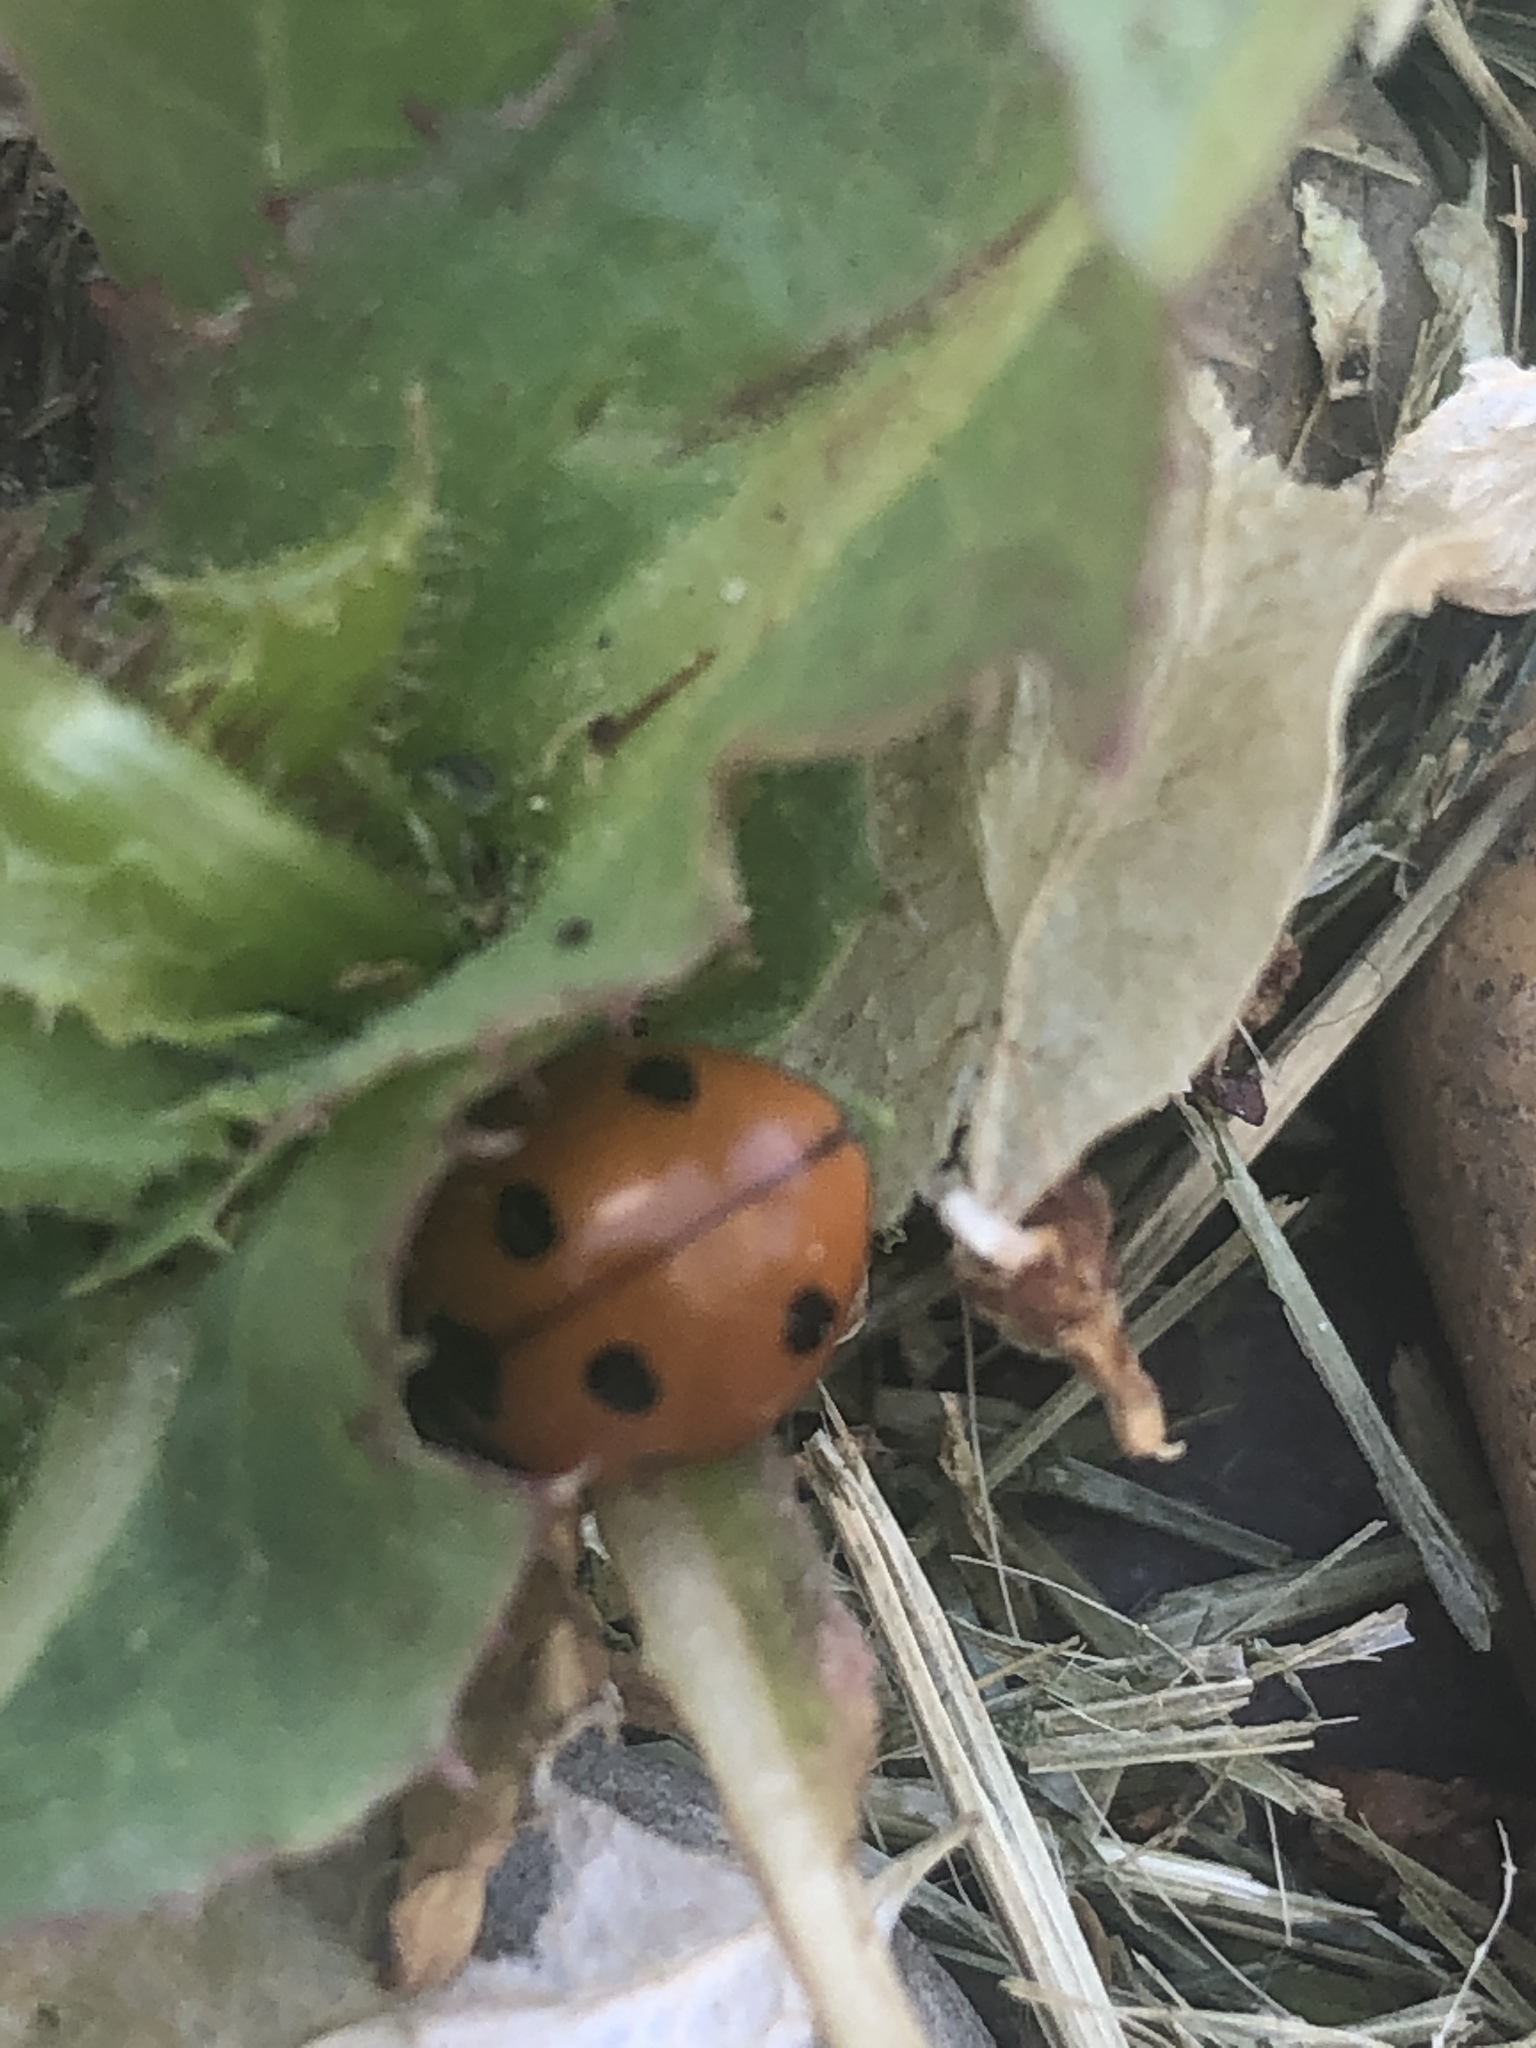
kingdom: Animalia
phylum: Arthropoda
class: Insecta
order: Coleoptera
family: Coccinellidae
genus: Coccinella
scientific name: Coccinella septempunctata
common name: Sevenspotted lady beetle
